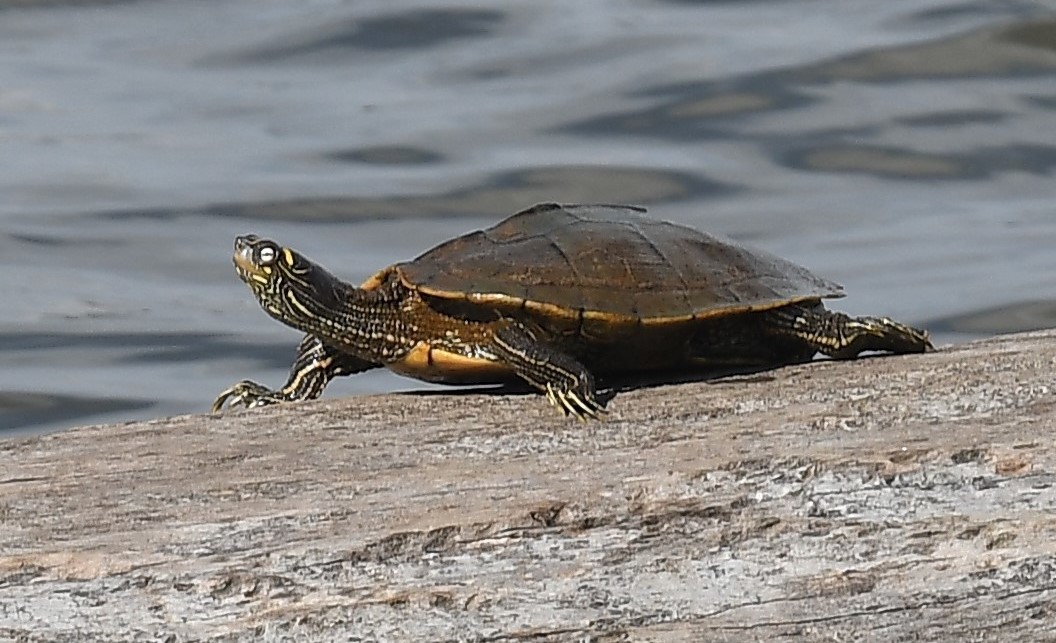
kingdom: Animalia
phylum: Chordata
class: Testudines
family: Emydidae
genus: Graptemys
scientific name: Graptemys ouachitensis
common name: Ouachita map turtle
